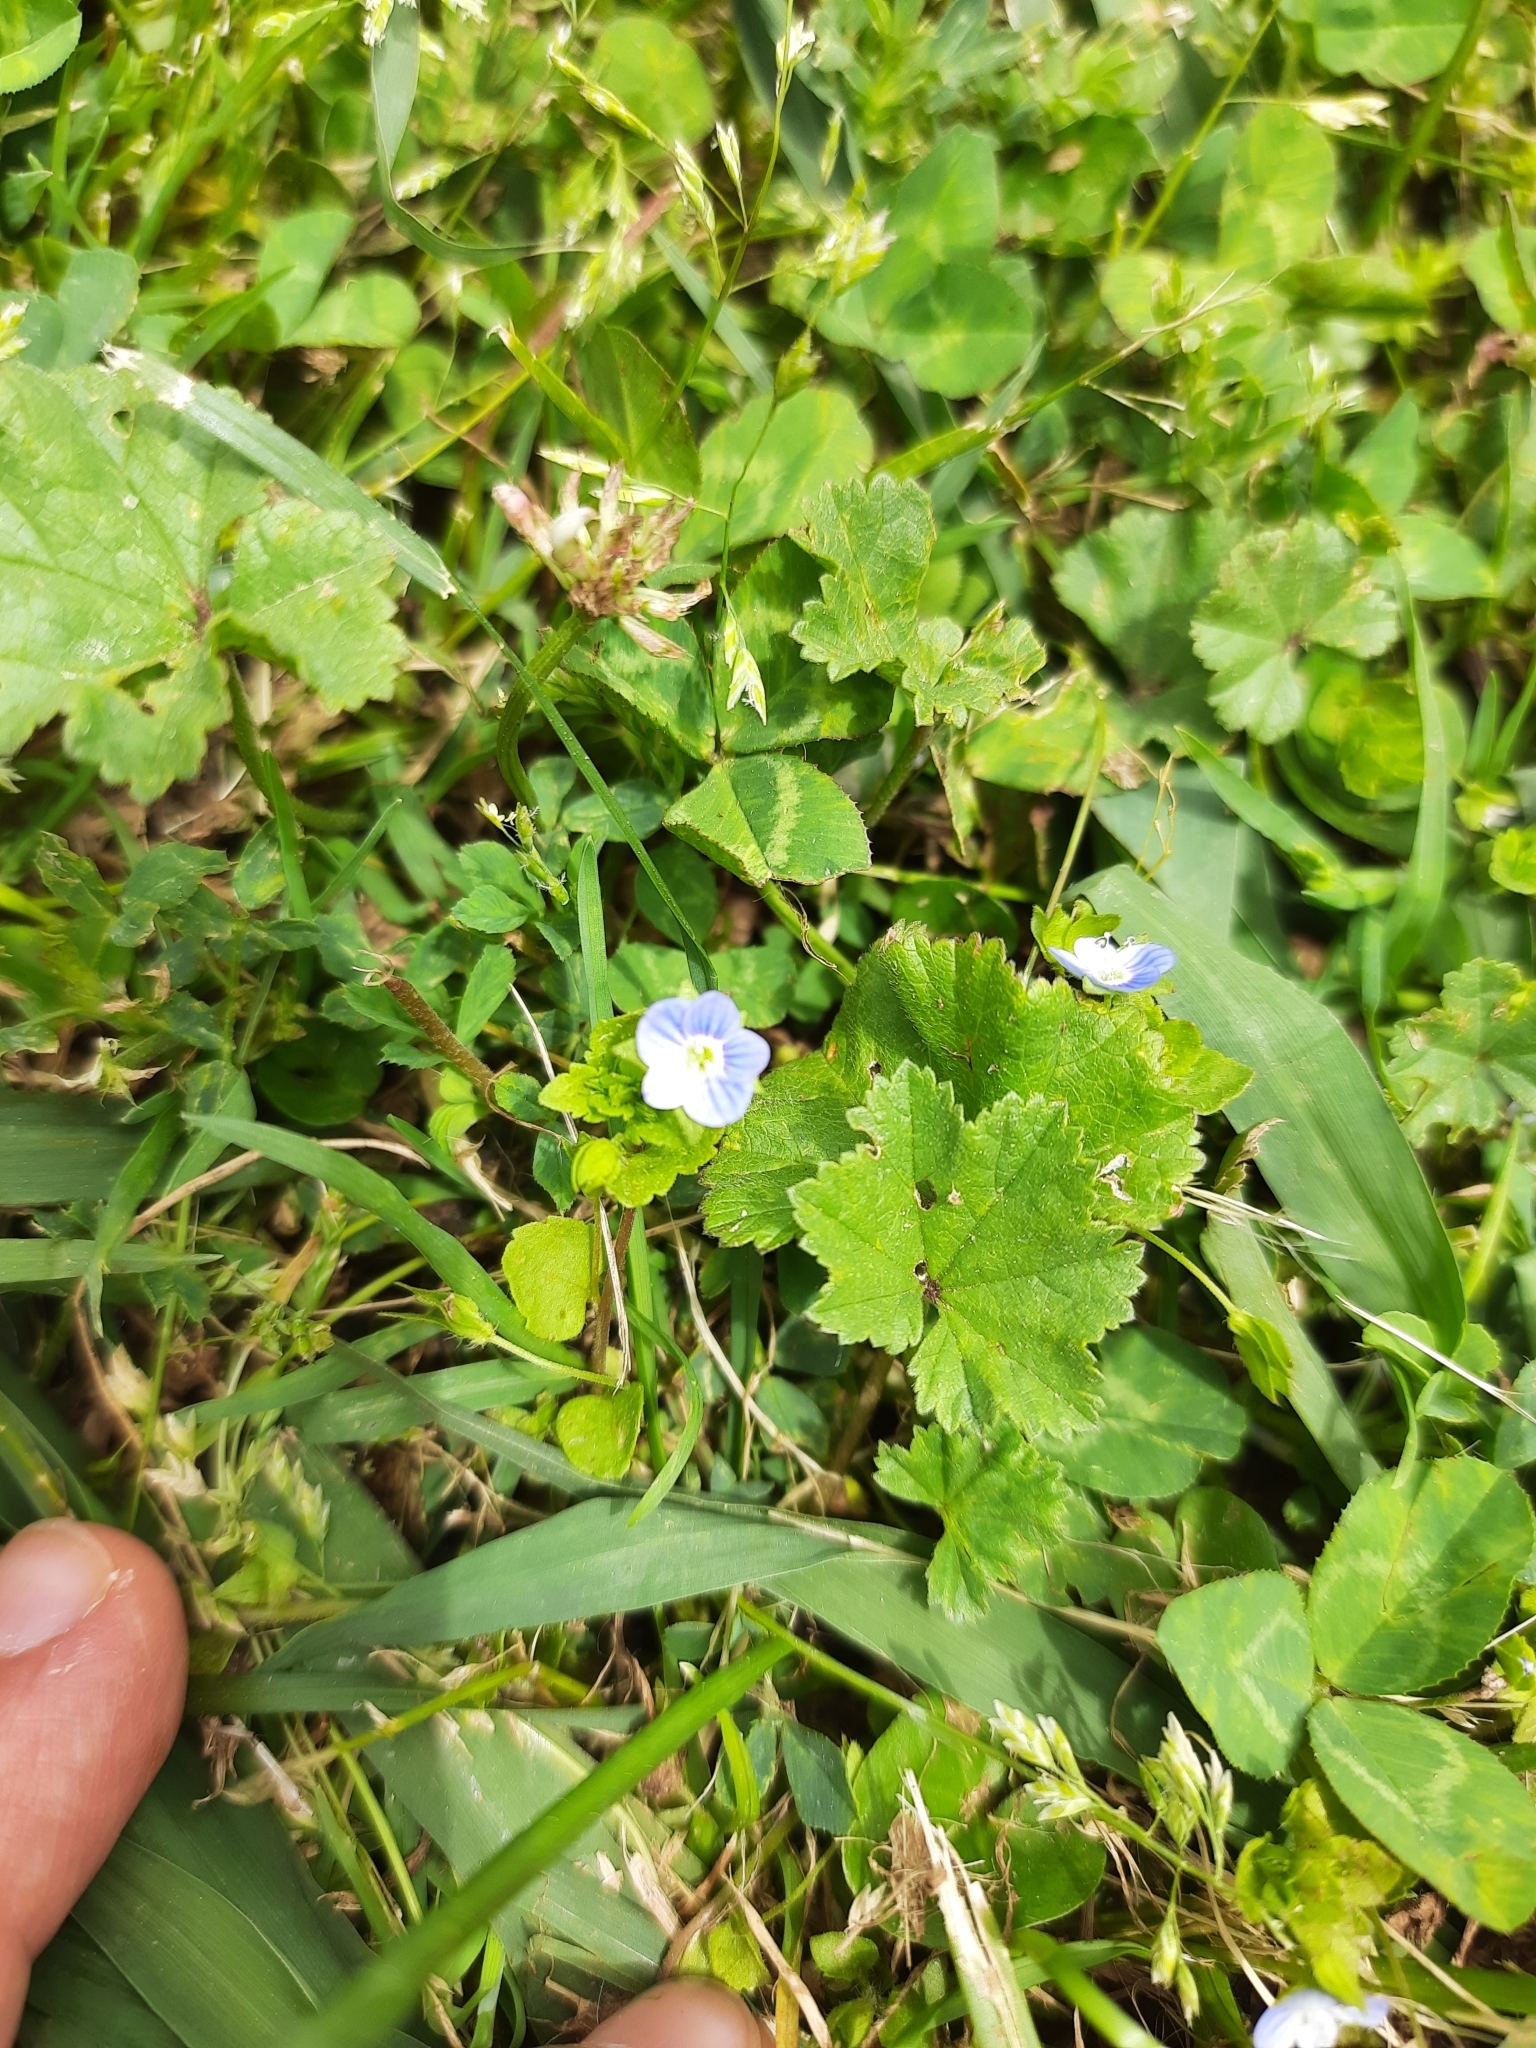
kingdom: Plantae
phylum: Tracheophyta
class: Magnoliopsida
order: Lamiales
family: Plantaginaceae
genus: Veronica
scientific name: Veronica persica
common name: Common field-speedwell
